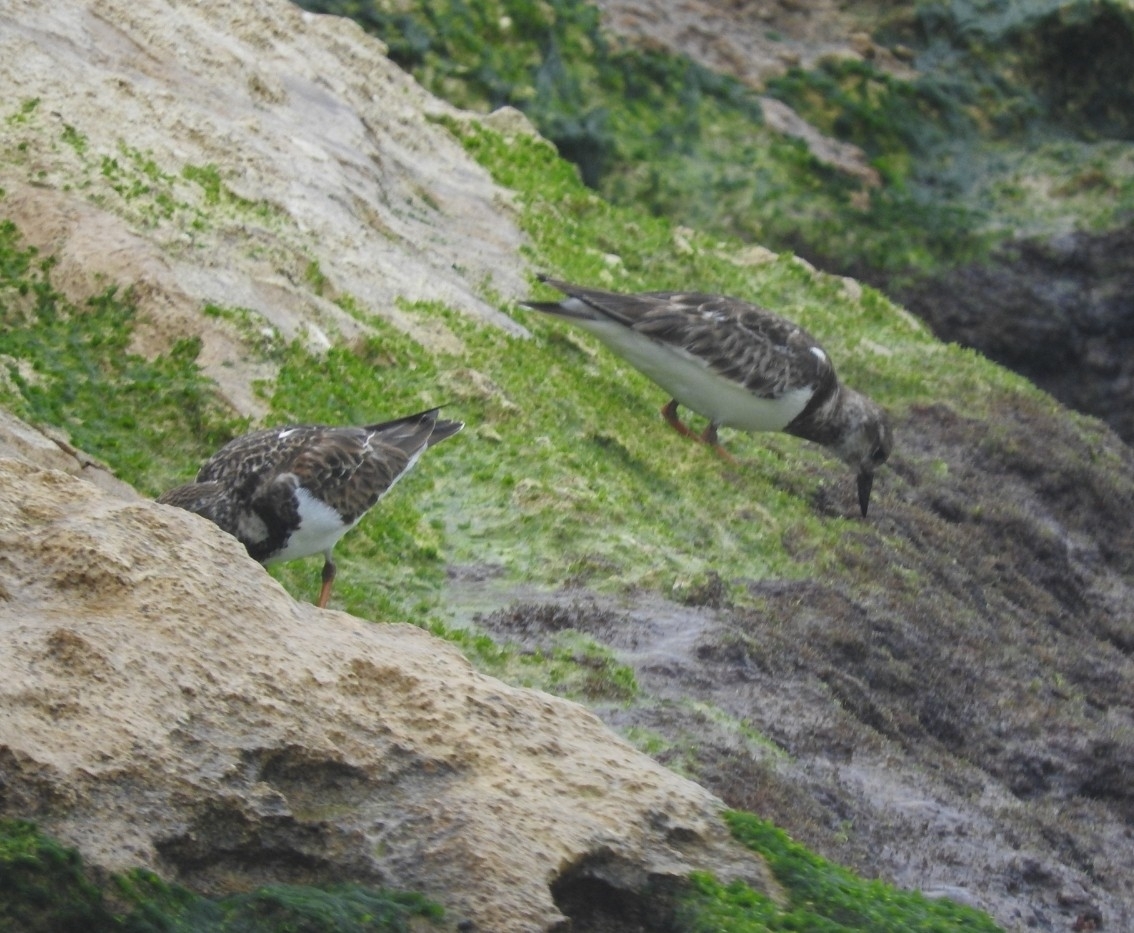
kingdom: Animalia
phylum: Chordata
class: Aves
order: Charadriiformes
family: Scolopacidae
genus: Arenaria
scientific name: Arenaria interpres
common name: Ruddy turnstone
